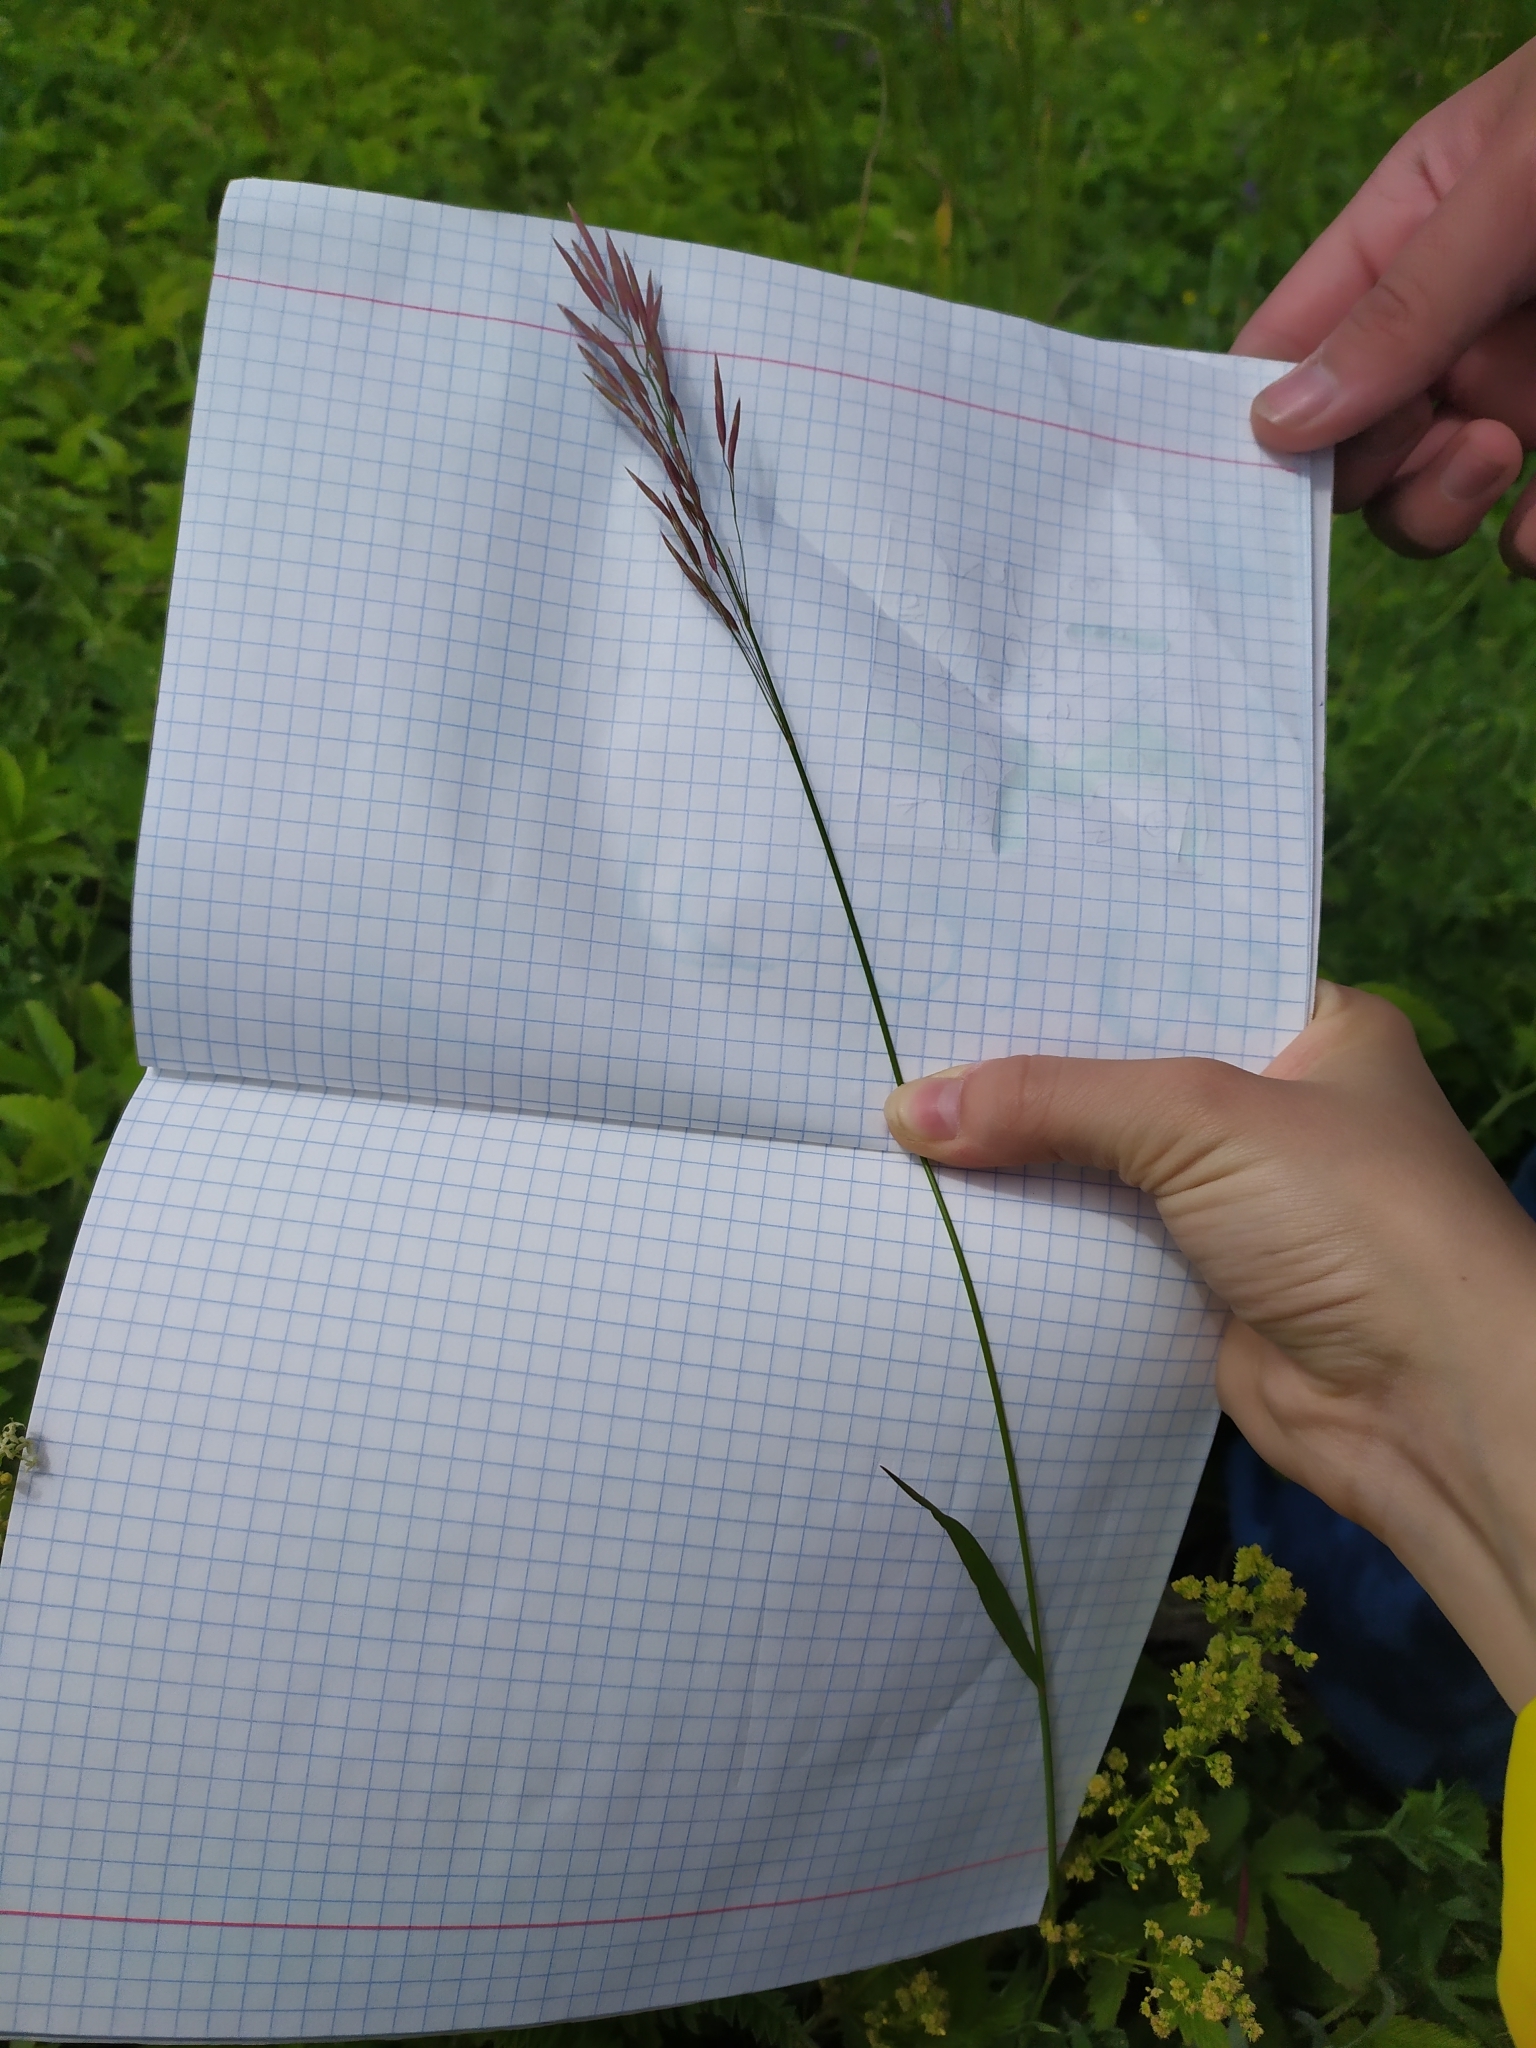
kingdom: Plantae
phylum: Tracheophyta
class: Liliopsida
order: Poales
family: Poaceae
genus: Bromus
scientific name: Bromus inermis
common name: Smooth brome
